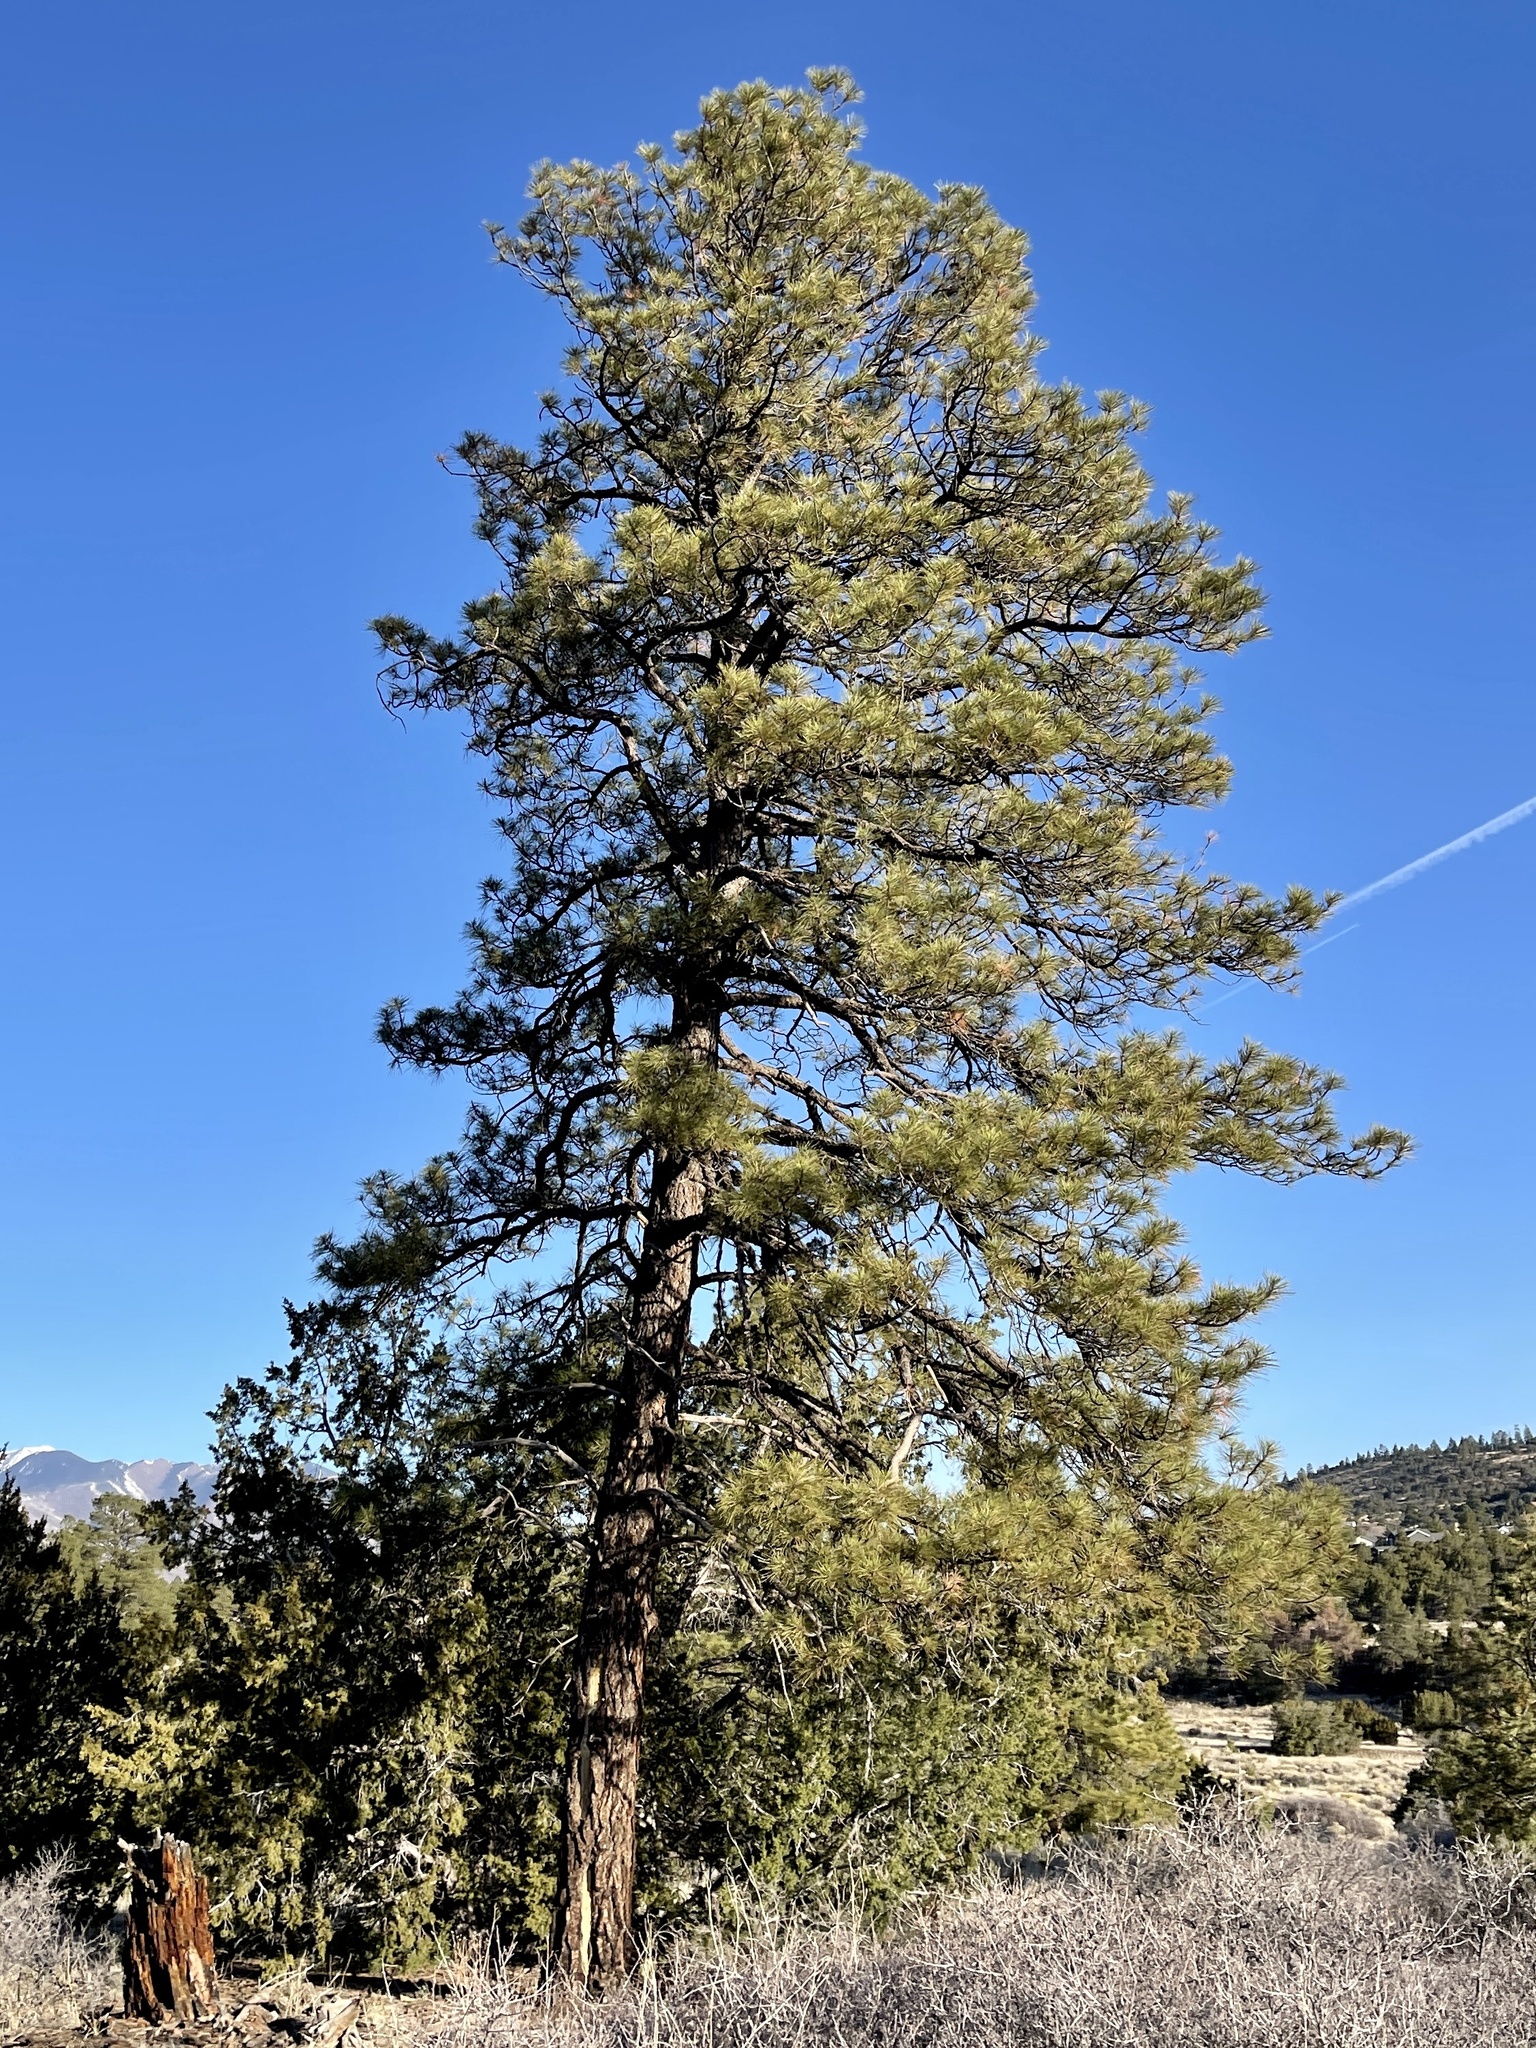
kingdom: Plantae
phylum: Tracheophyta
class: Pinopsida
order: Pinales
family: Pinaceae
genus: Pinus
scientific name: Pinus ponderosa
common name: Western yellow-pine
